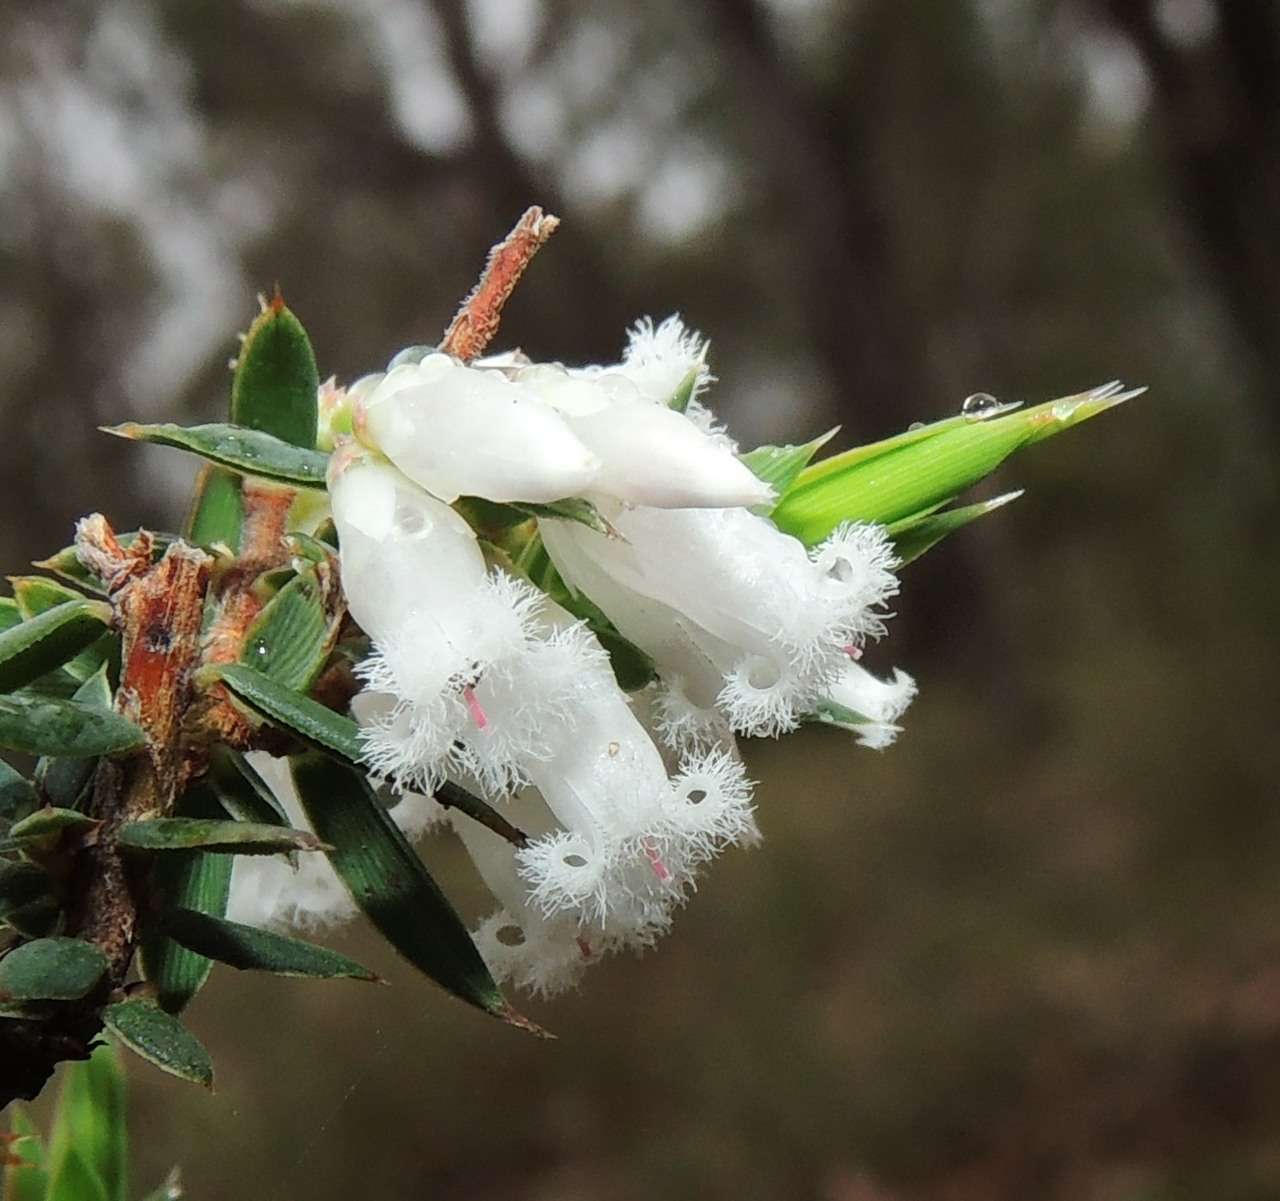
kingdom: Plantae
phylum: Tracheophyta
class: Magnoliopsida
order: Ericales
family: Ericaceae
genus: Styphelia
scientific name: Styphelia fletcheri
